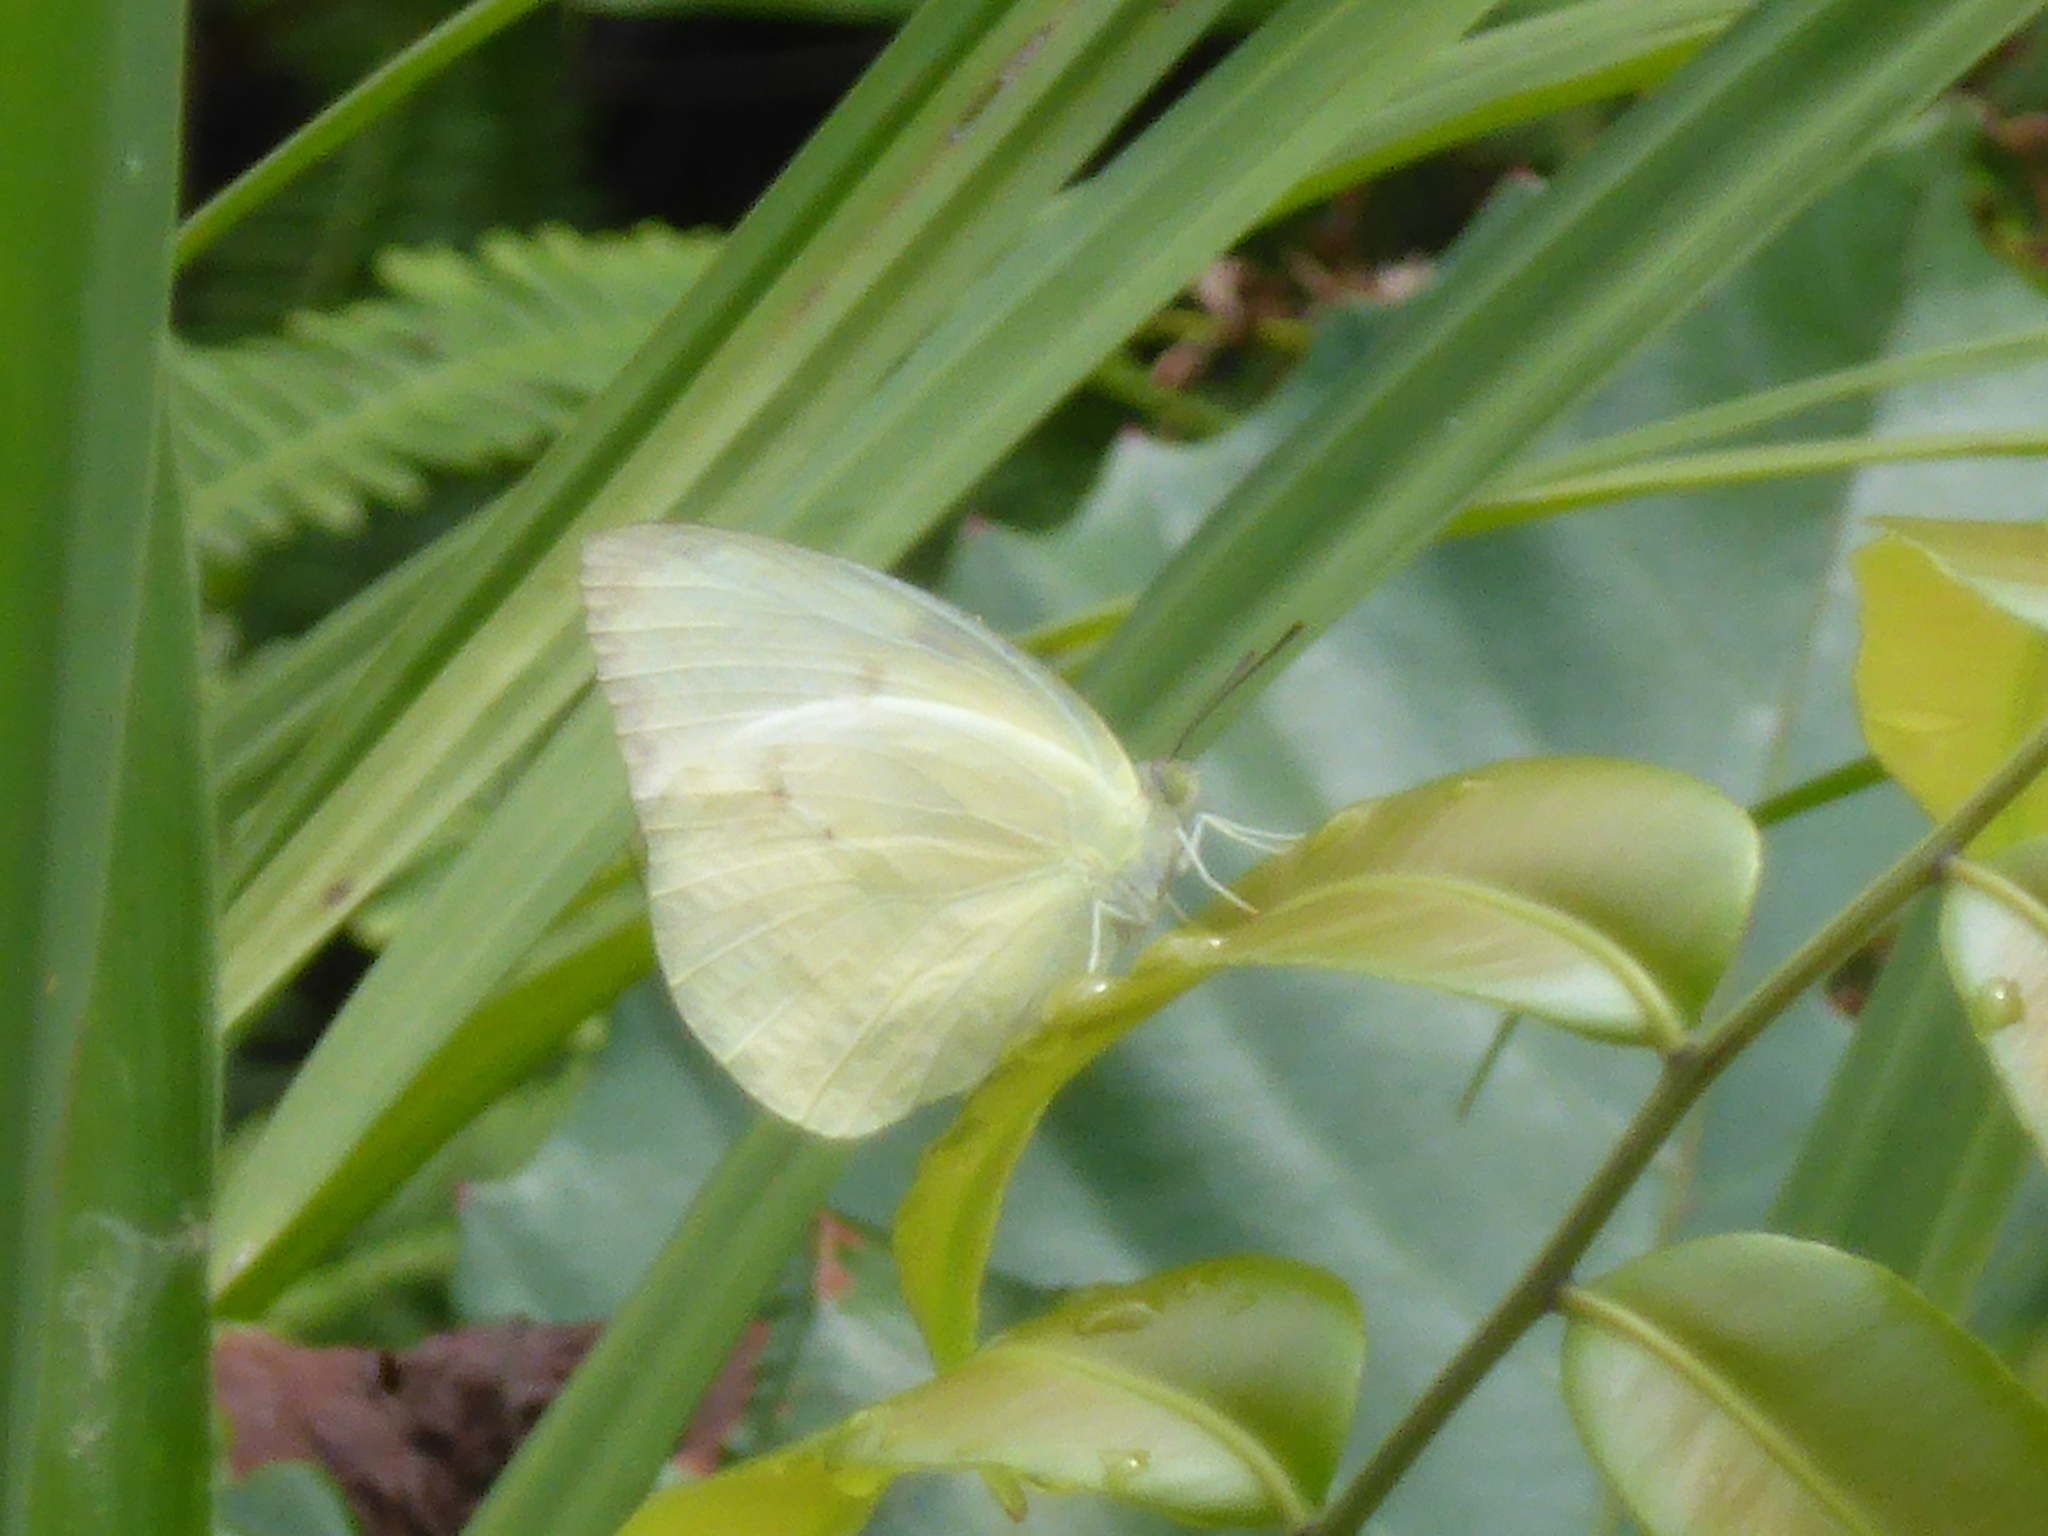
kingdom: Animalia
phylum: Arthropoda
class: Insecta
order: Lepidoptera
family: Pieridae
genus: Catopsilia
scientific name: Catopsilia pomona
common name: Common emigrant
